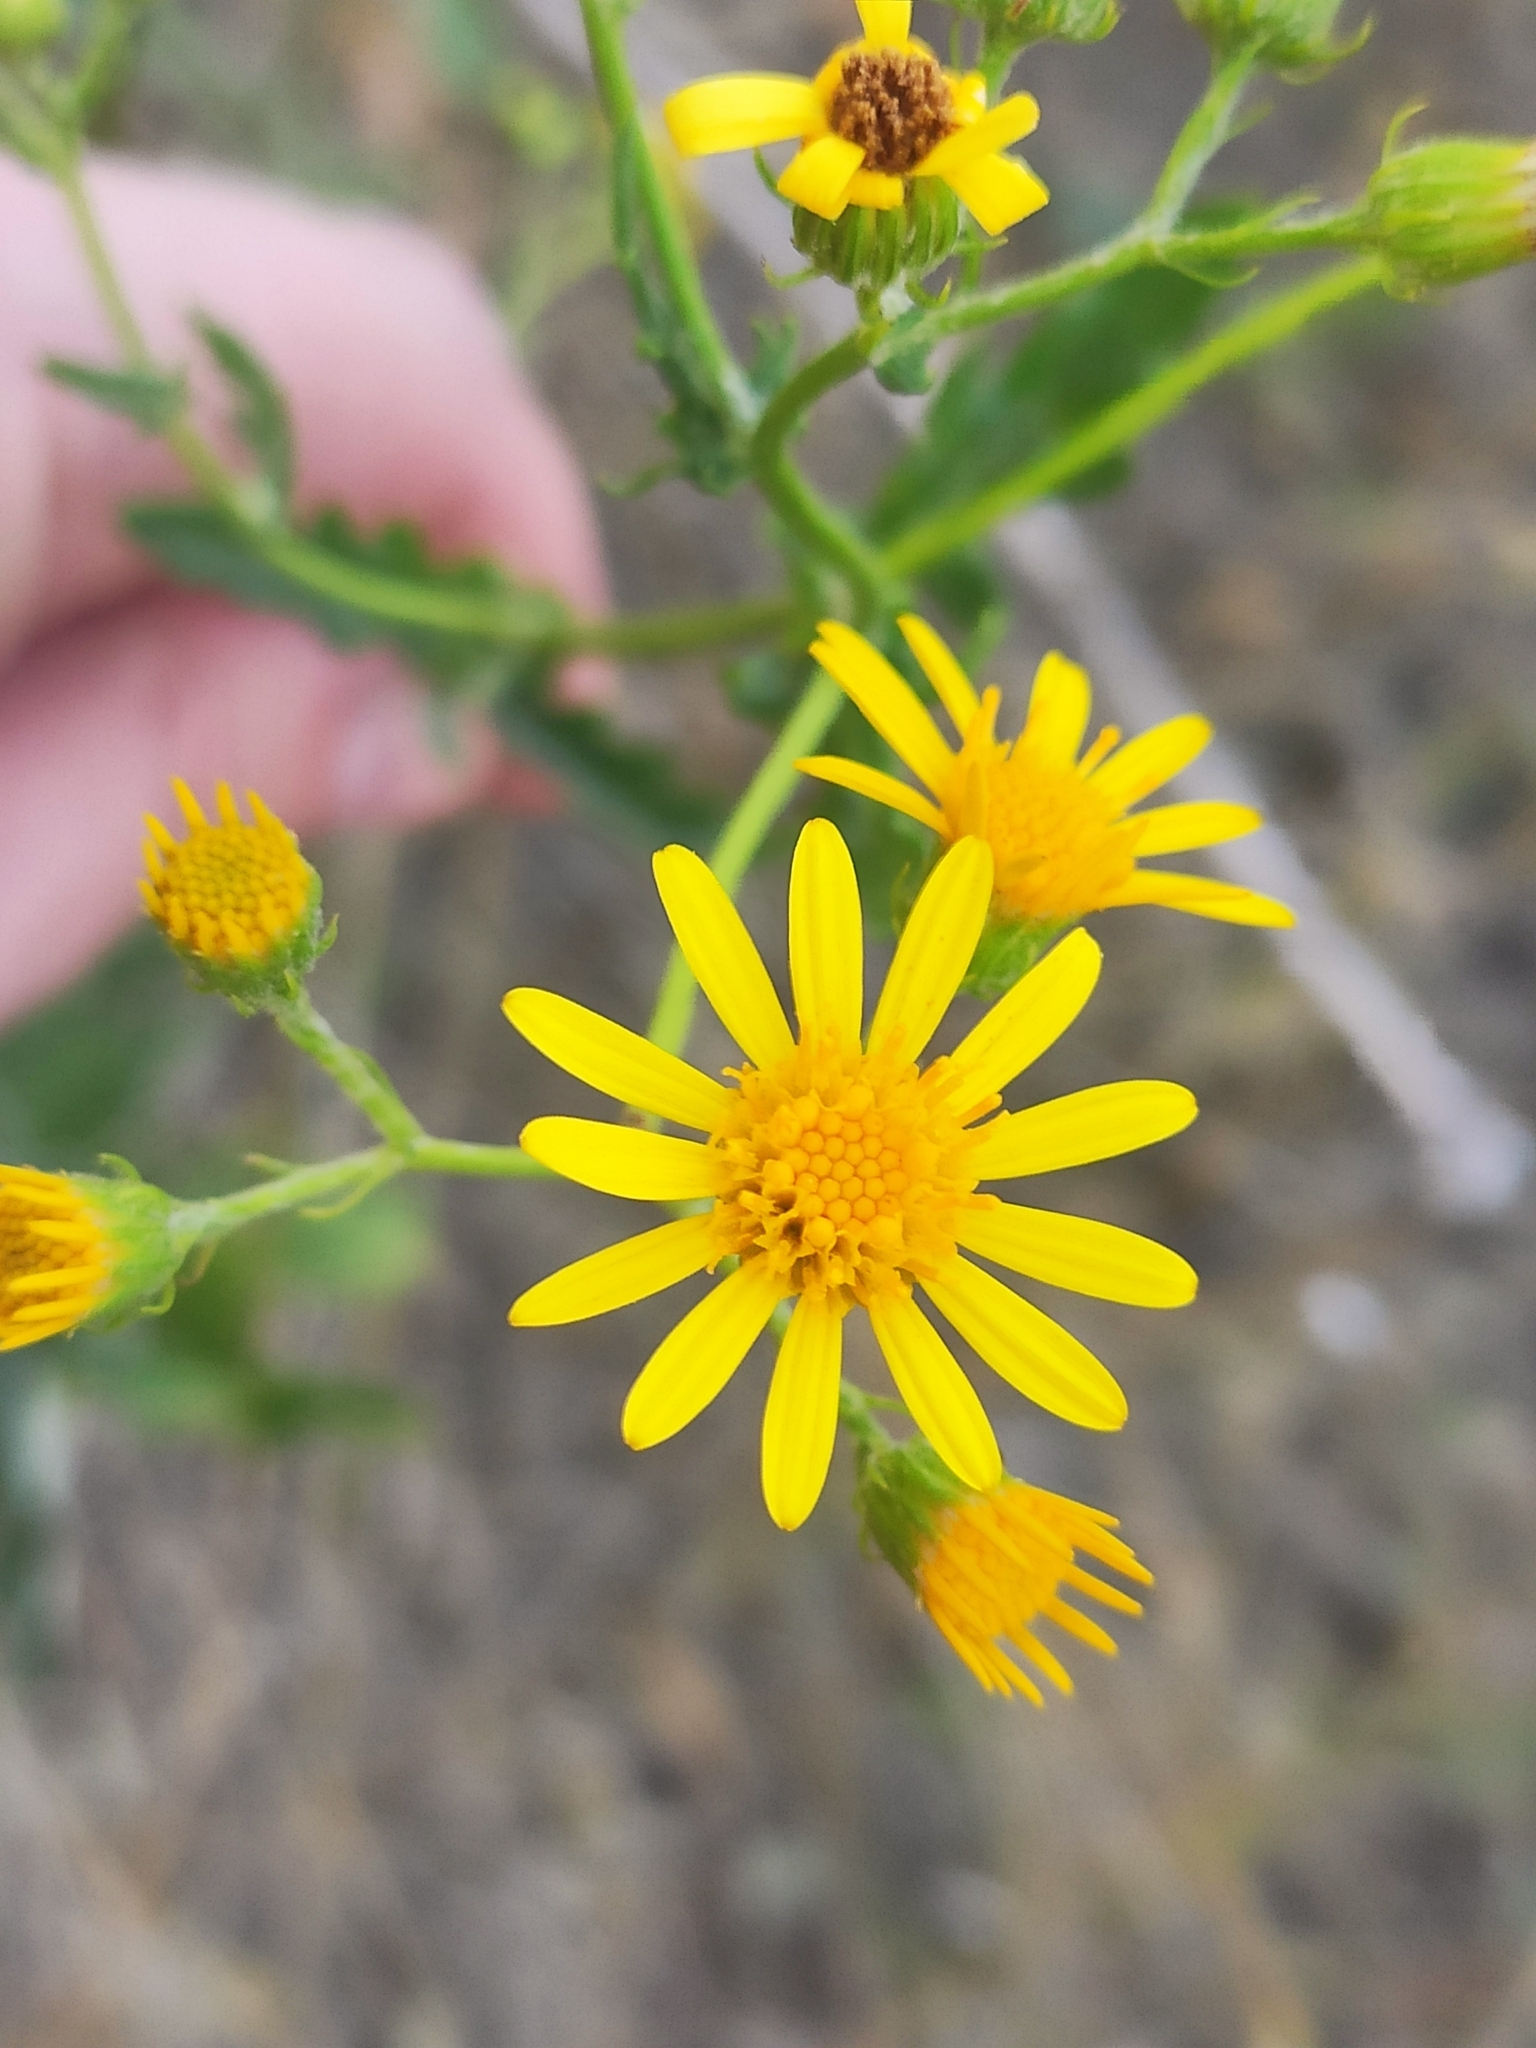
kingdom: Plantae
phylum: Tracheophyta
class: Magnoliopsida
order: Asterales
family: Asteraceae
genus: Jacobaea
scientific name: Jacobaea erucifolia
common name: Hoary ragwort
